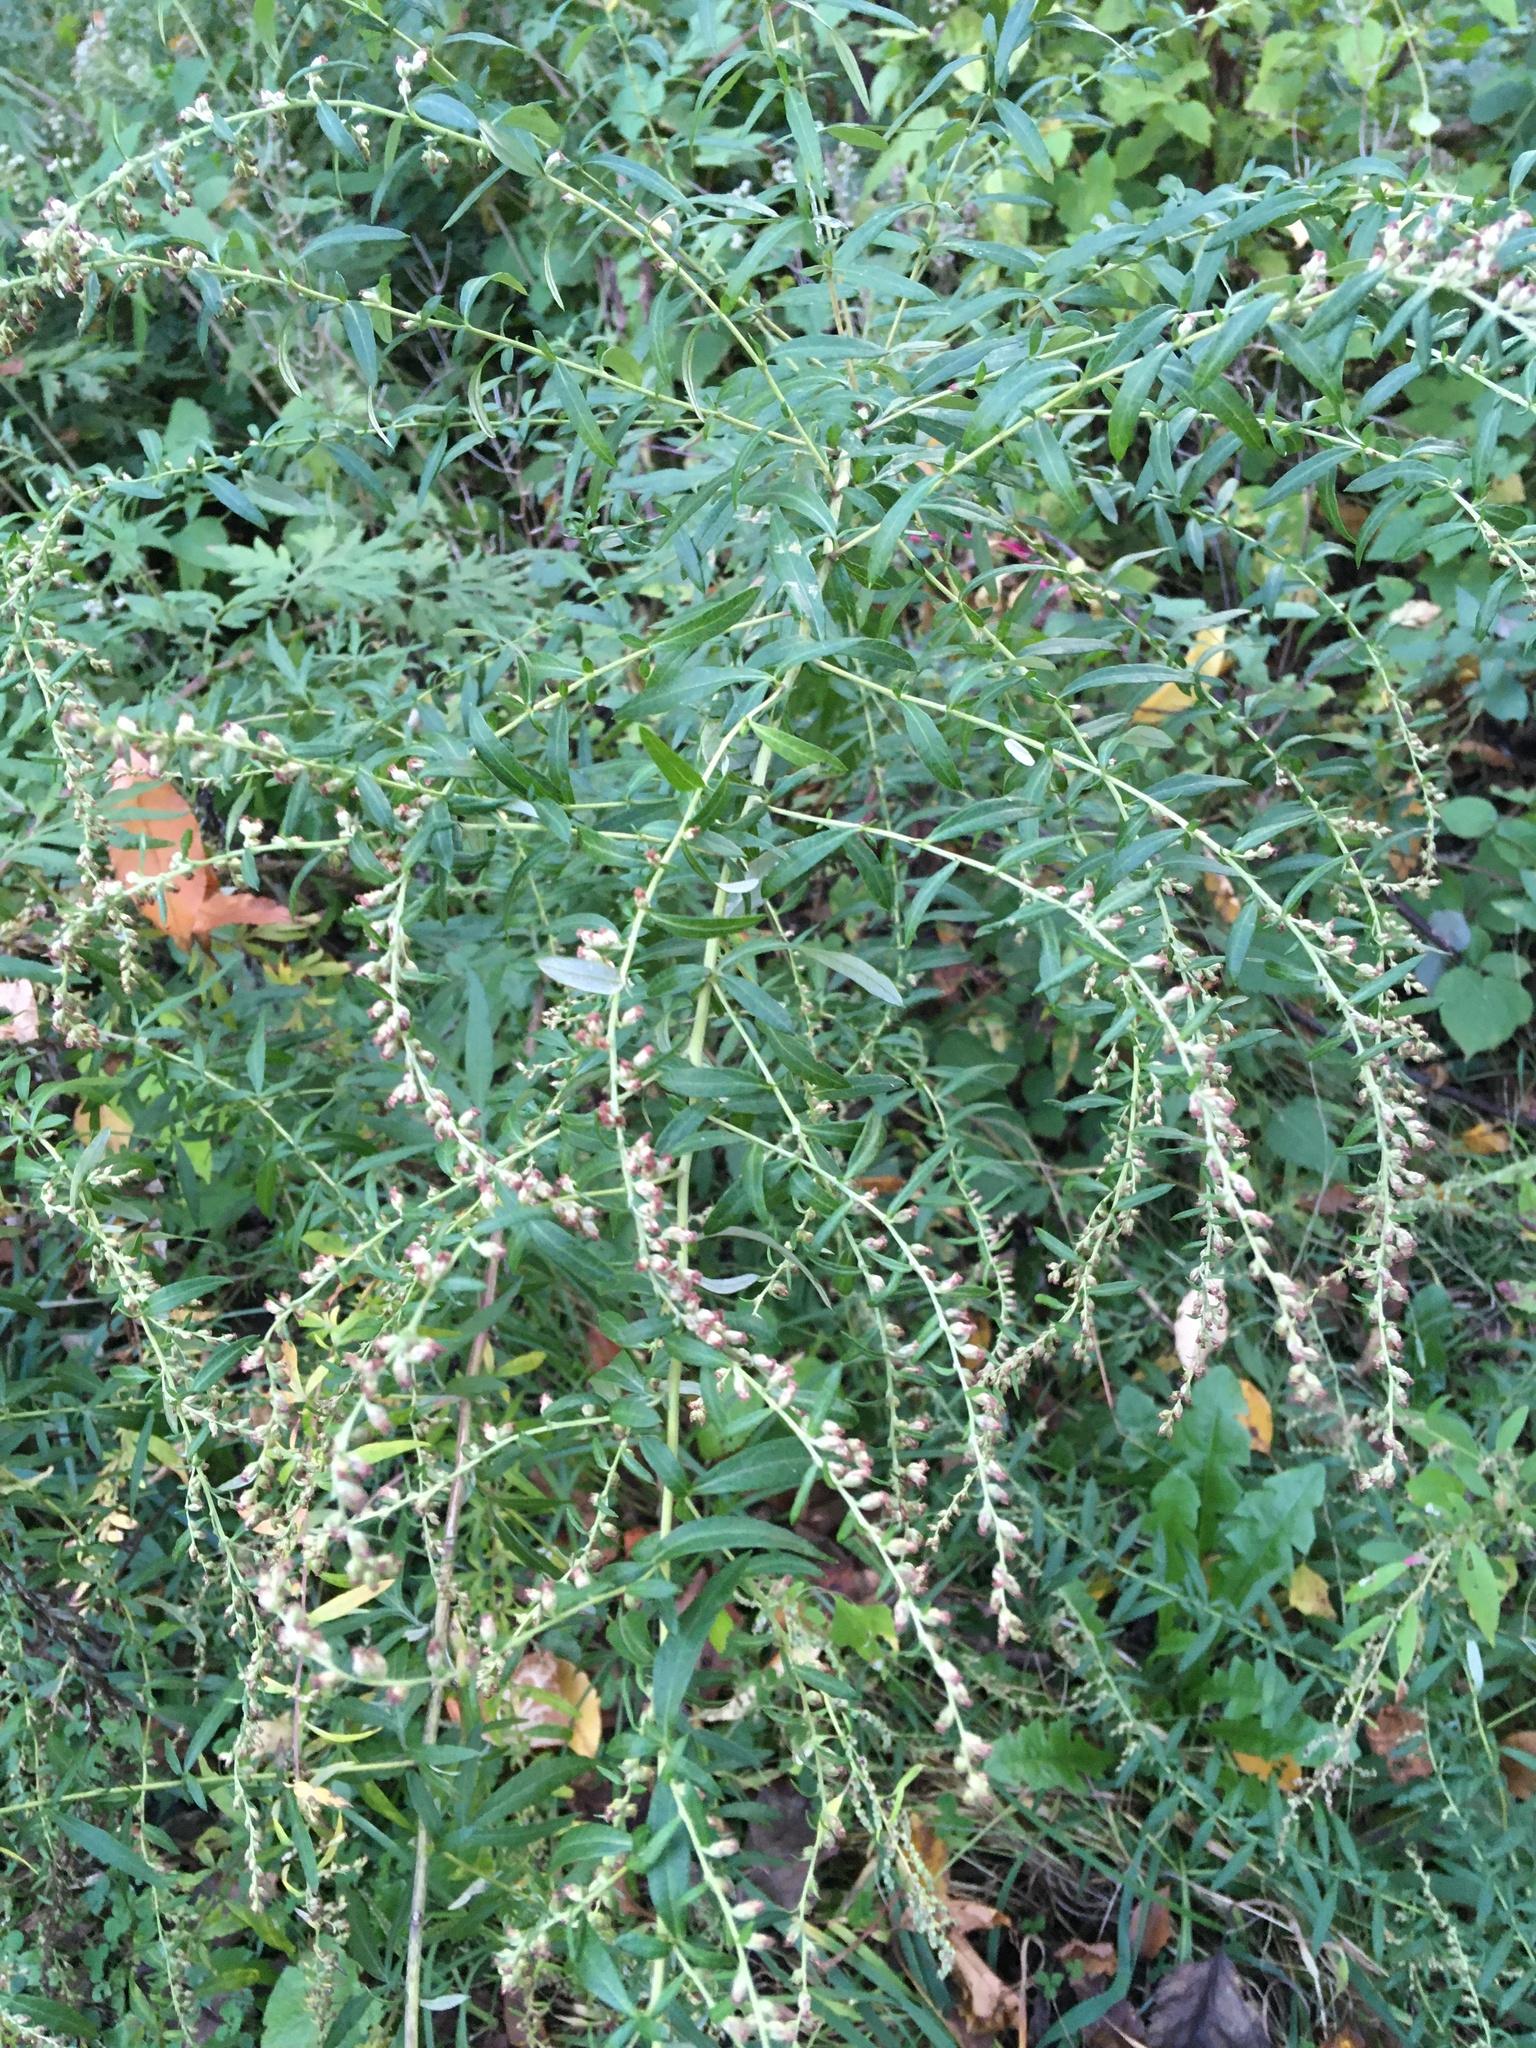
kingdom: Plantae
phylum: Tracheophyta
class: Magnoliopsida
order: Asterales
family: Asteraceae
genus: Artemisia
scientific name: Artemisia vulgaris
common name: Mugwort
